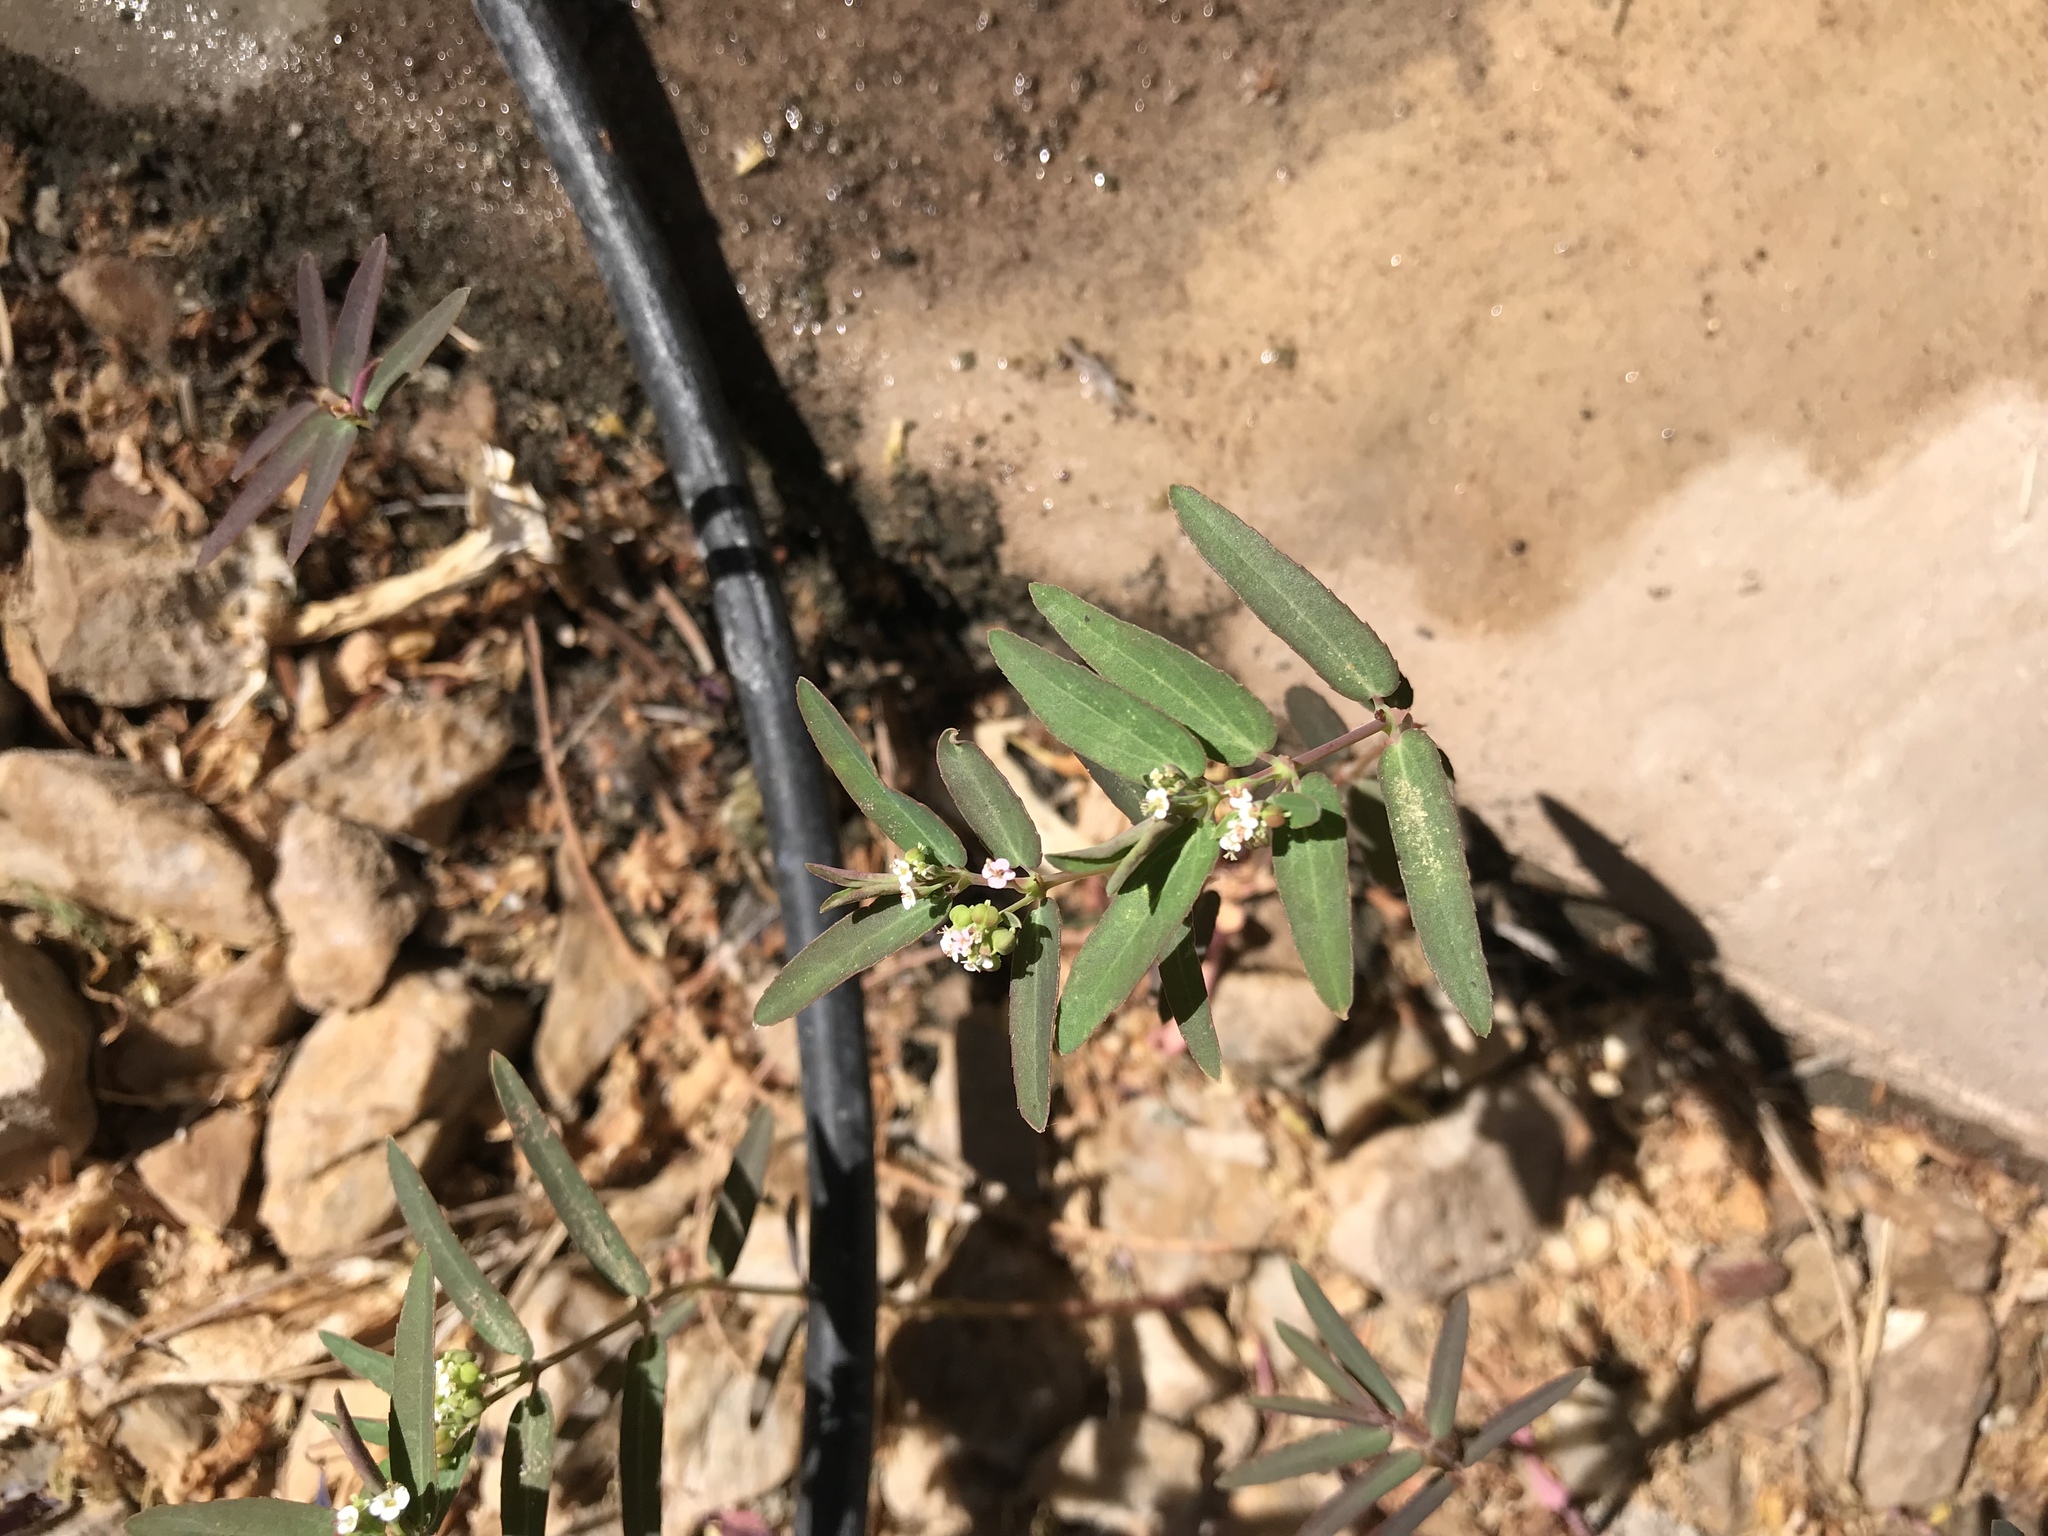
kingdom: Plantae
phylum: Tracheophyta
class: Magnoliopsida
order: Malpighiales
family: Euphorbiaceae
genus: Euphorbia
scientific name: Euphorbia hypericifolia
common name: Graceful sandmat
